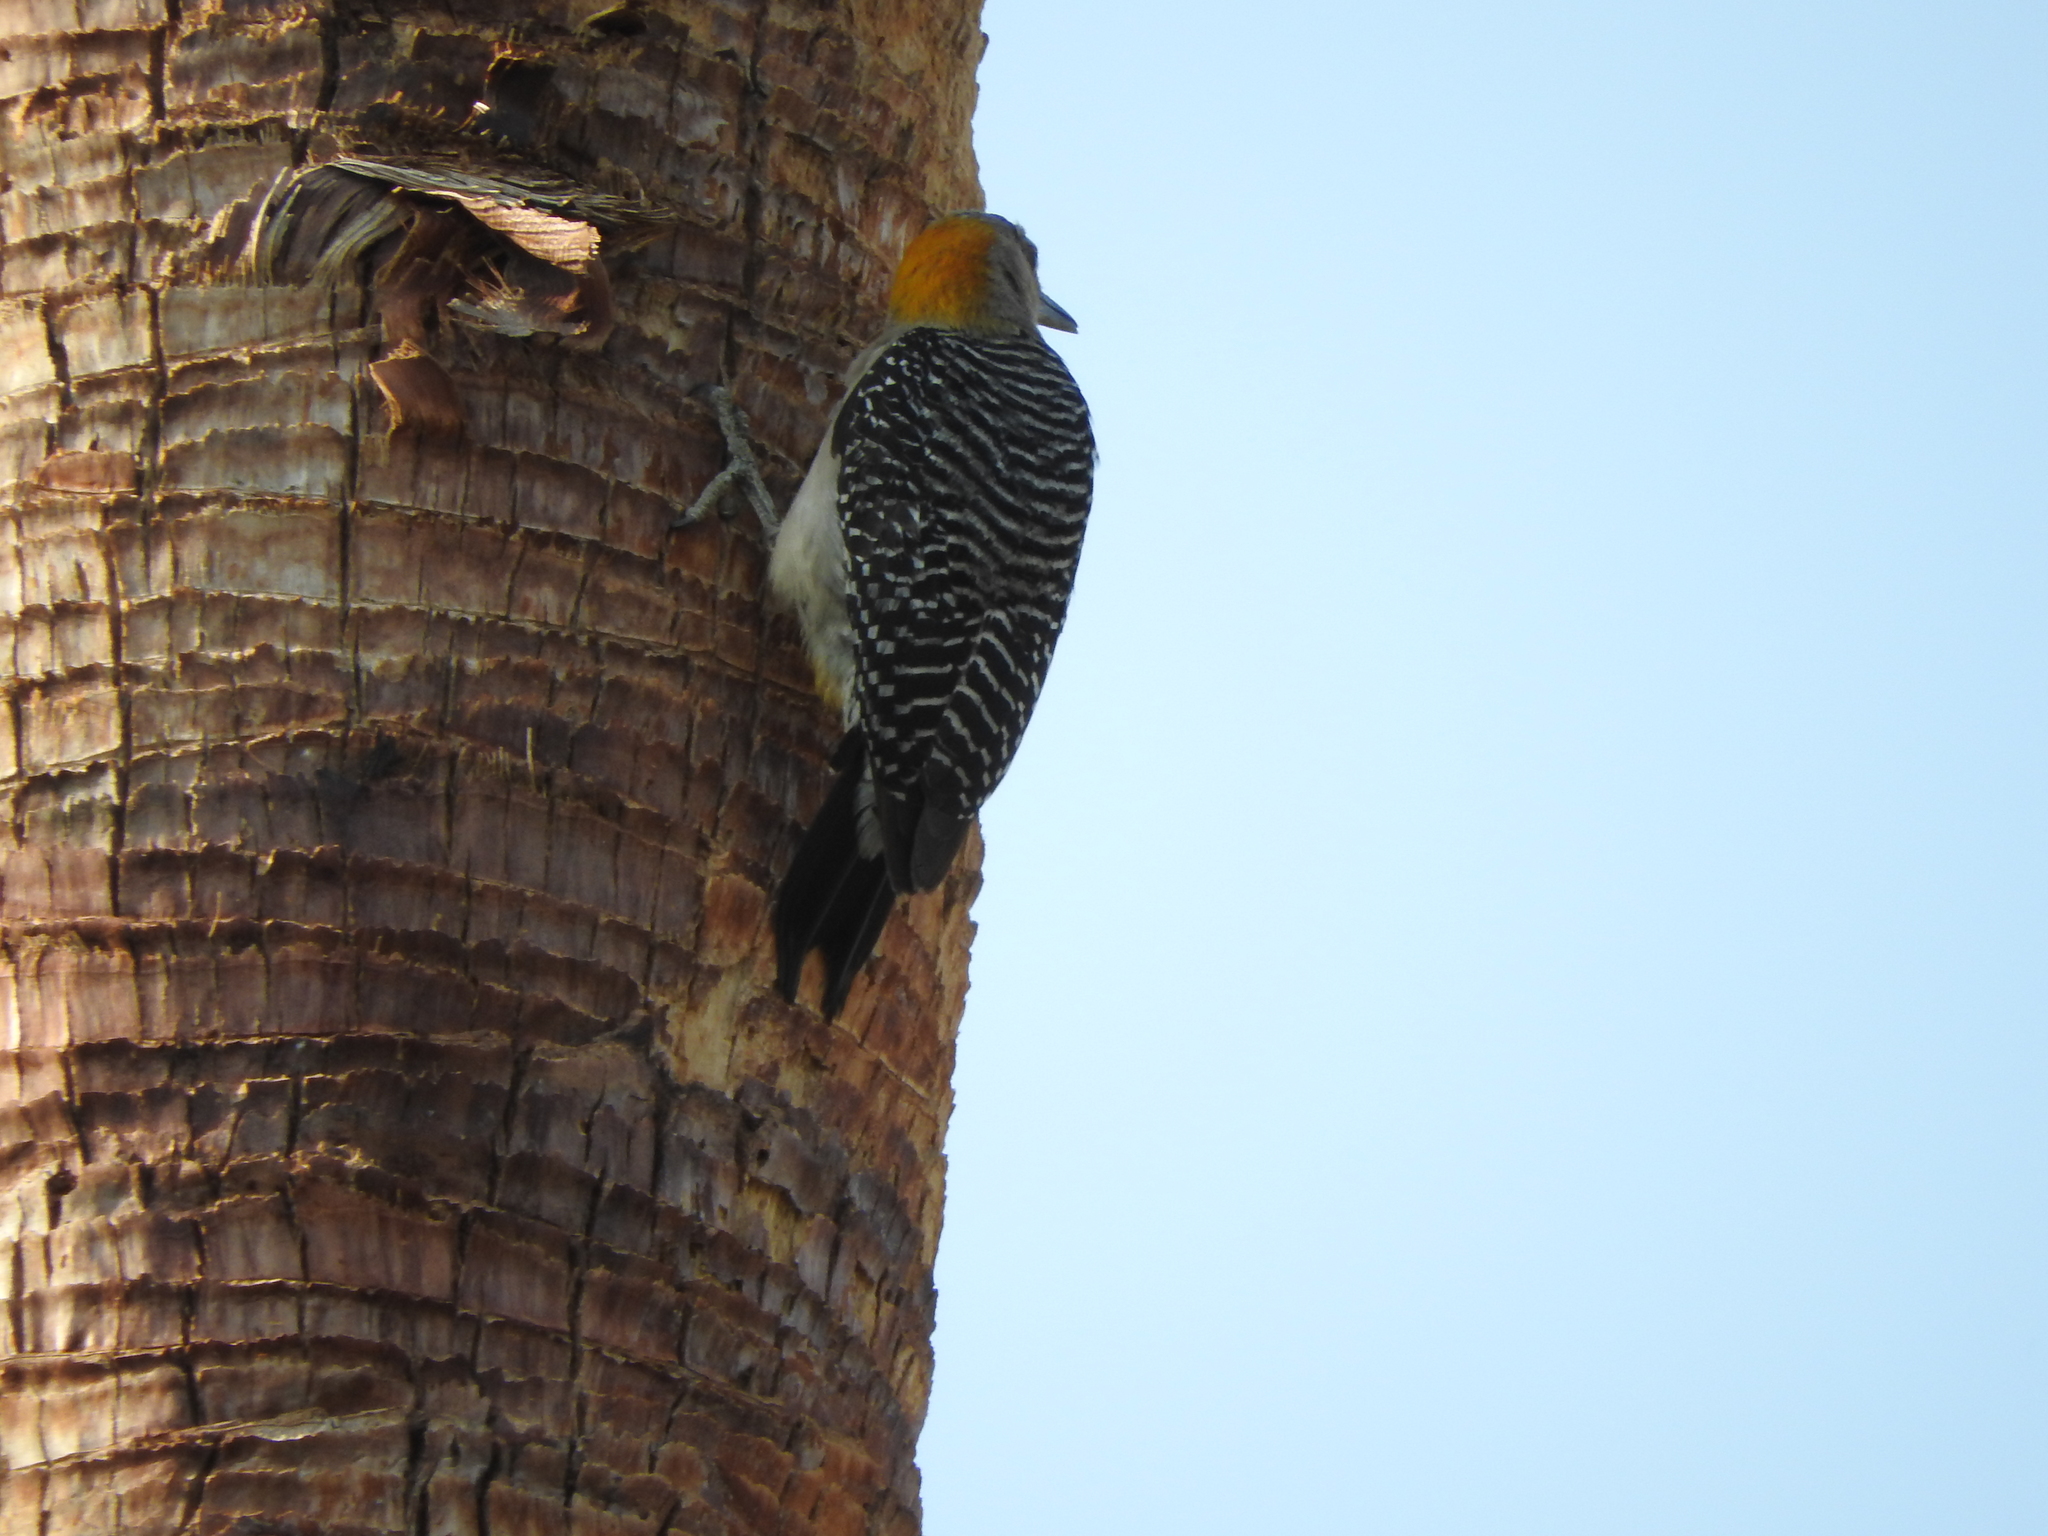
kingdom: Animalia
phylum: Chordata
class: Aves
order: Piciformes
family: Picidae
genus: Melanerpes
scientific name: Melanerpes aurifrons
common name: Golden-fronted woodpecker
